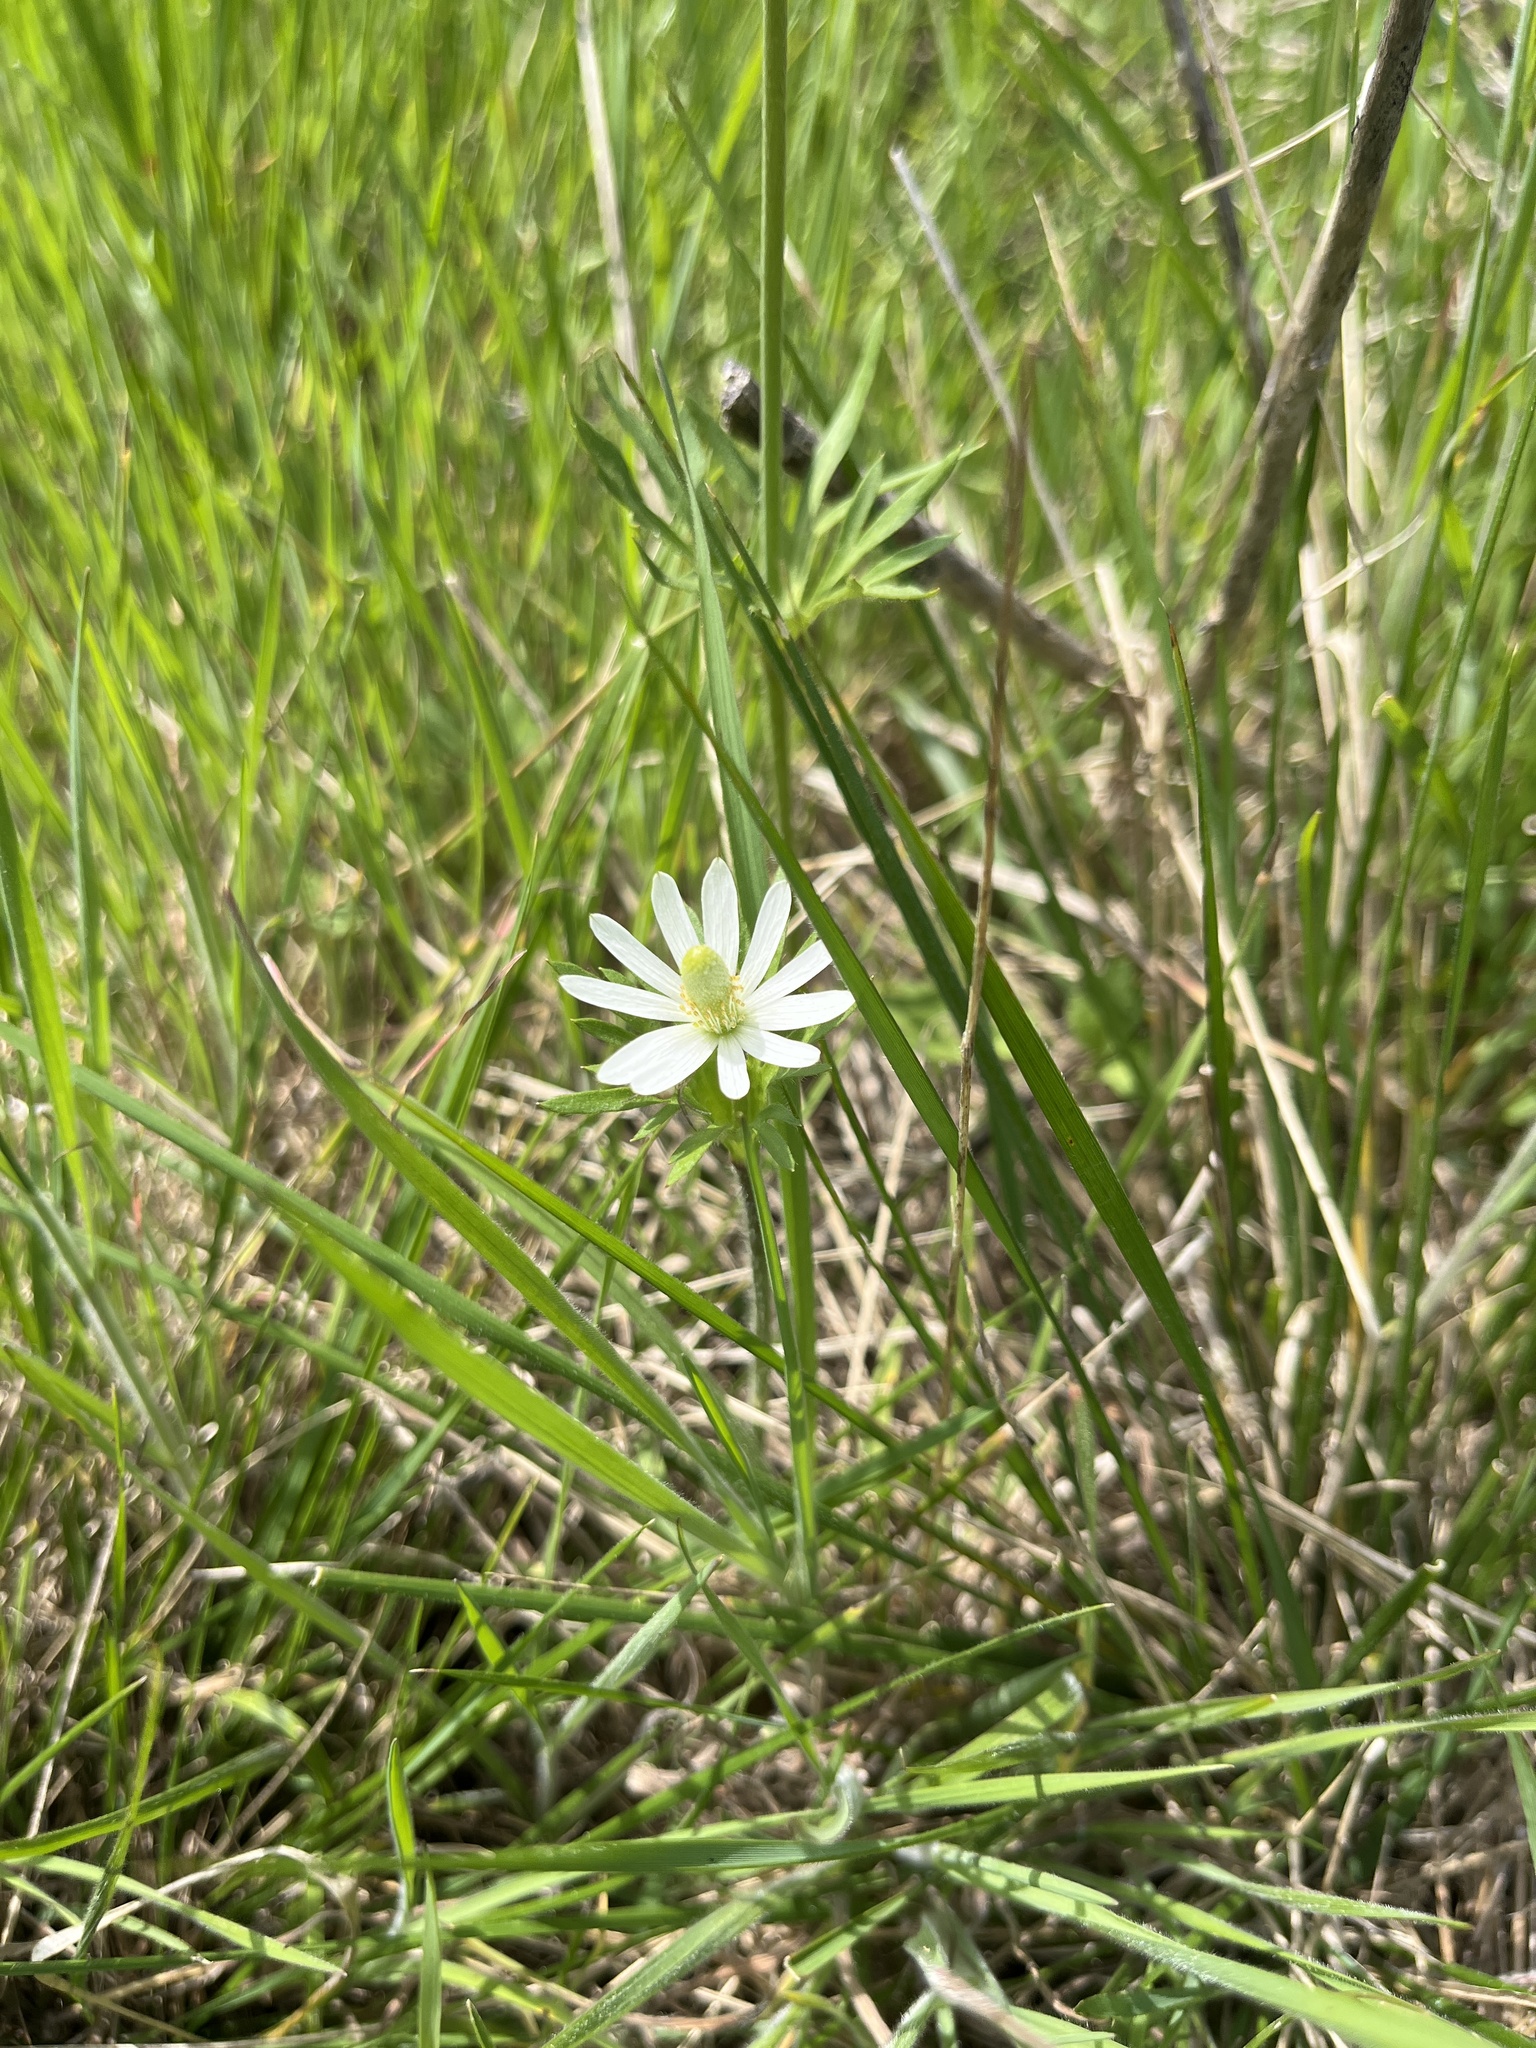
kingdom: Plantae
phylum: Tracheophyta
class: Magnoliopsida
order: Ranunculales
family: Ranunculaceae
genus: Anemone
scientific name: Anemone berlandieri
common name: Ten-petal anemone
